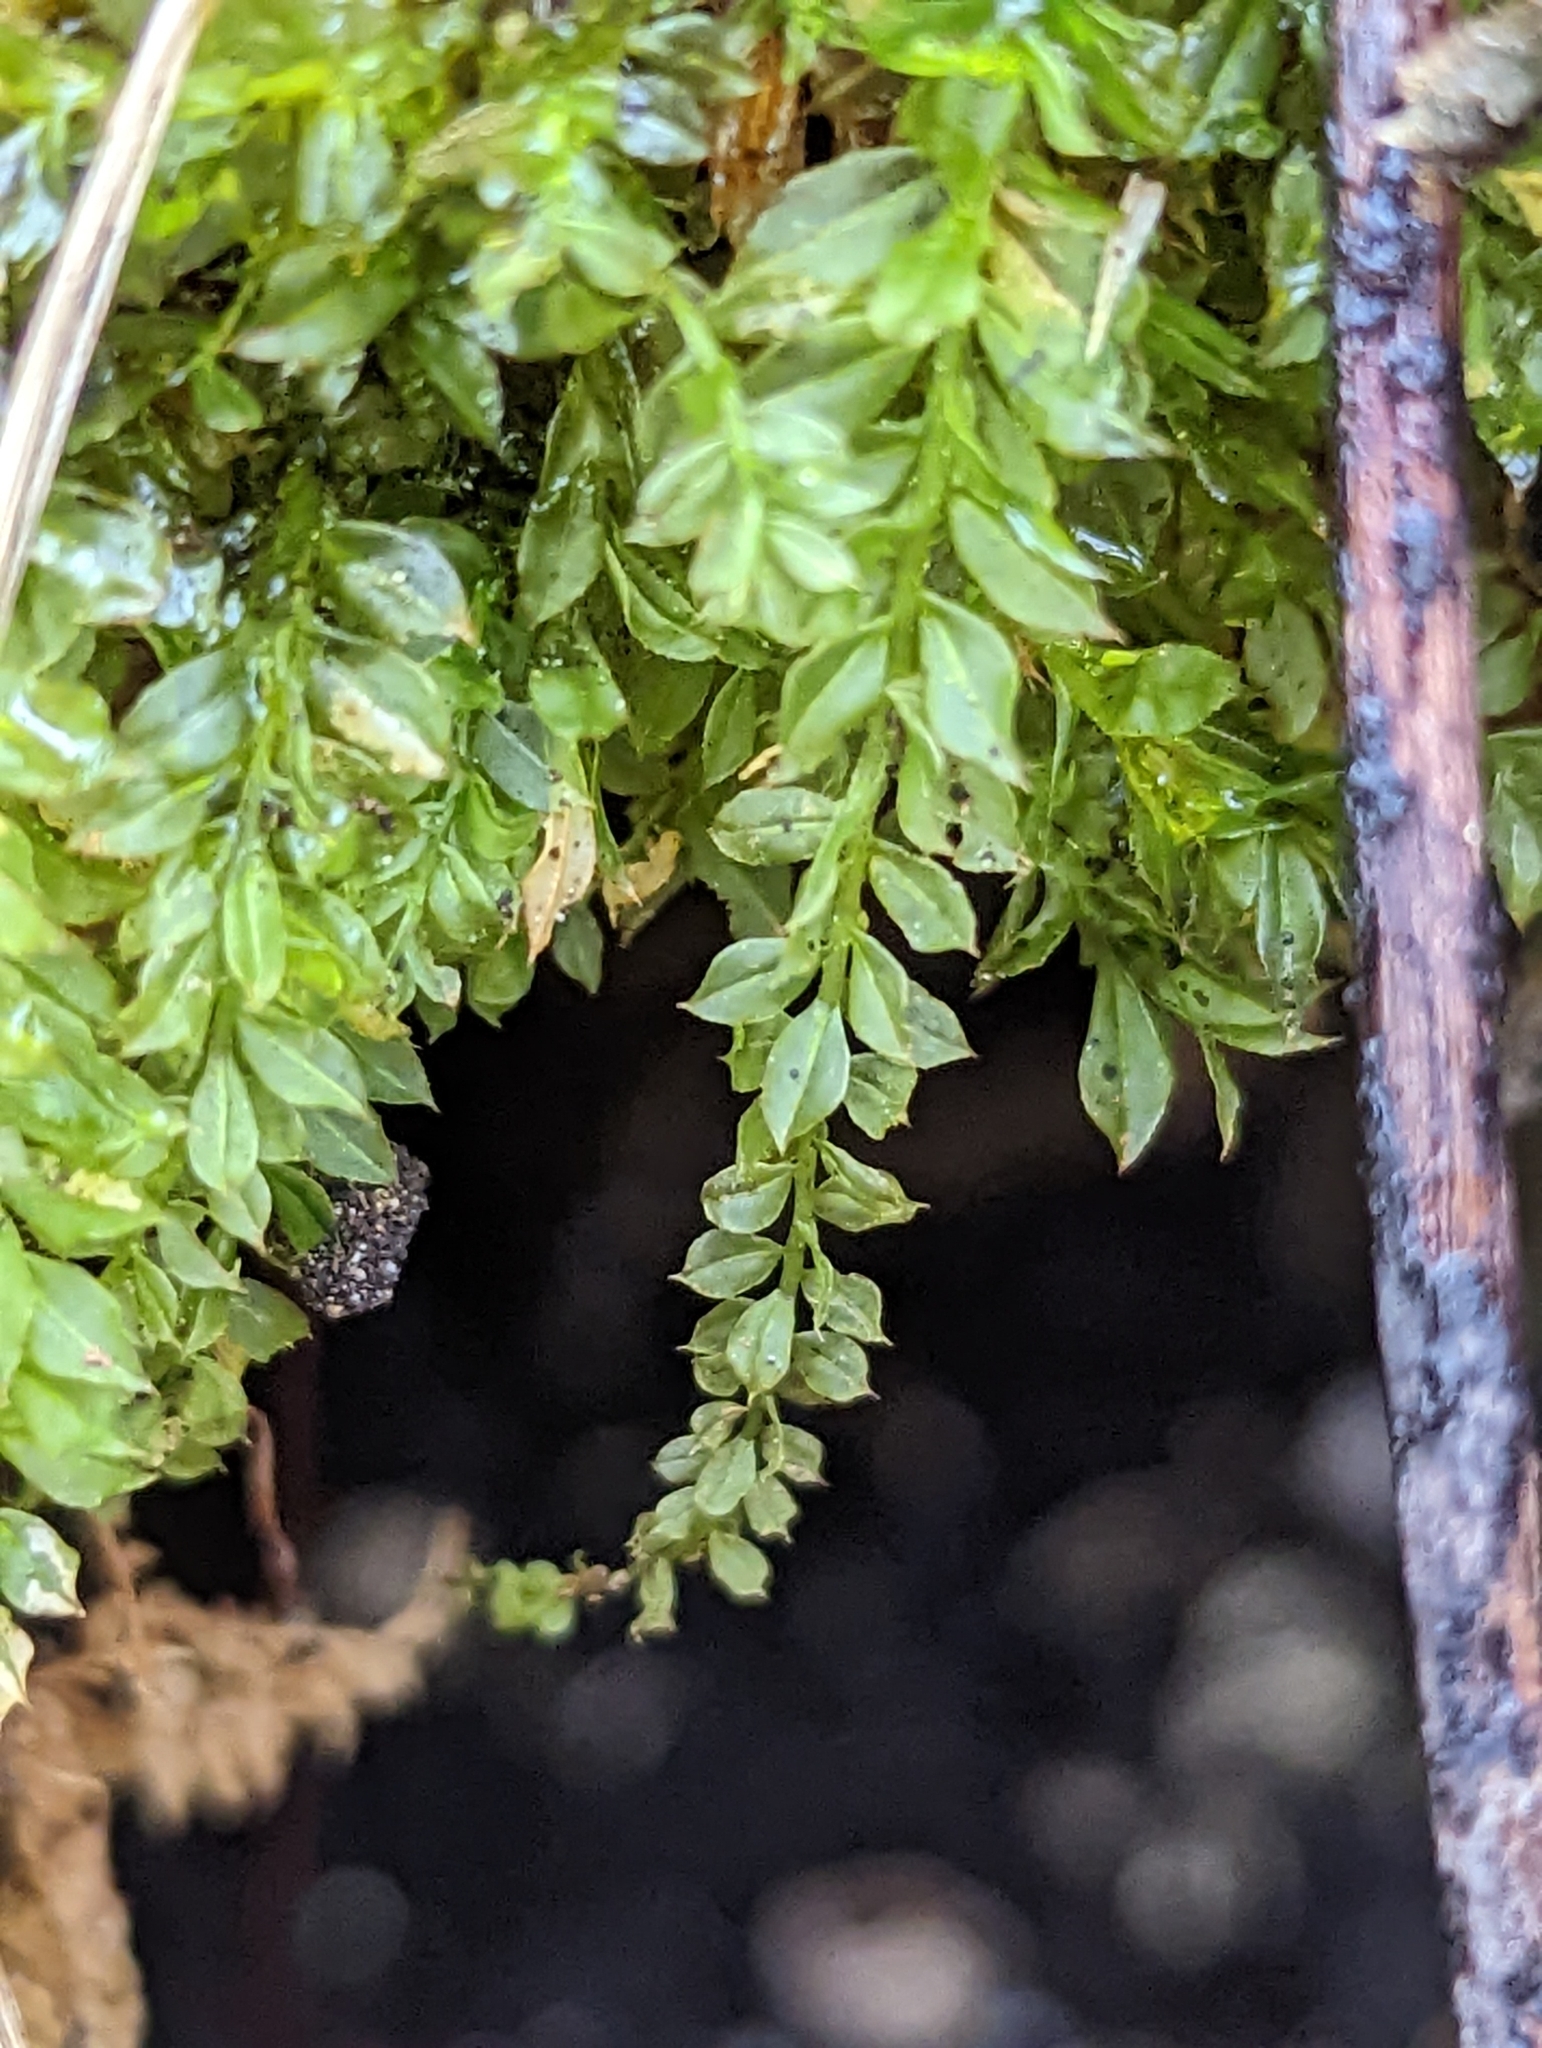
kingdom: Plantae
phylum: Bryophyta
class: Bryopsida
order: Bryales
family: Mniaceae
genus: Plagiomnium
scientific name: Plagiomnium cuspidatum
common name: Woodsy leafy moss
